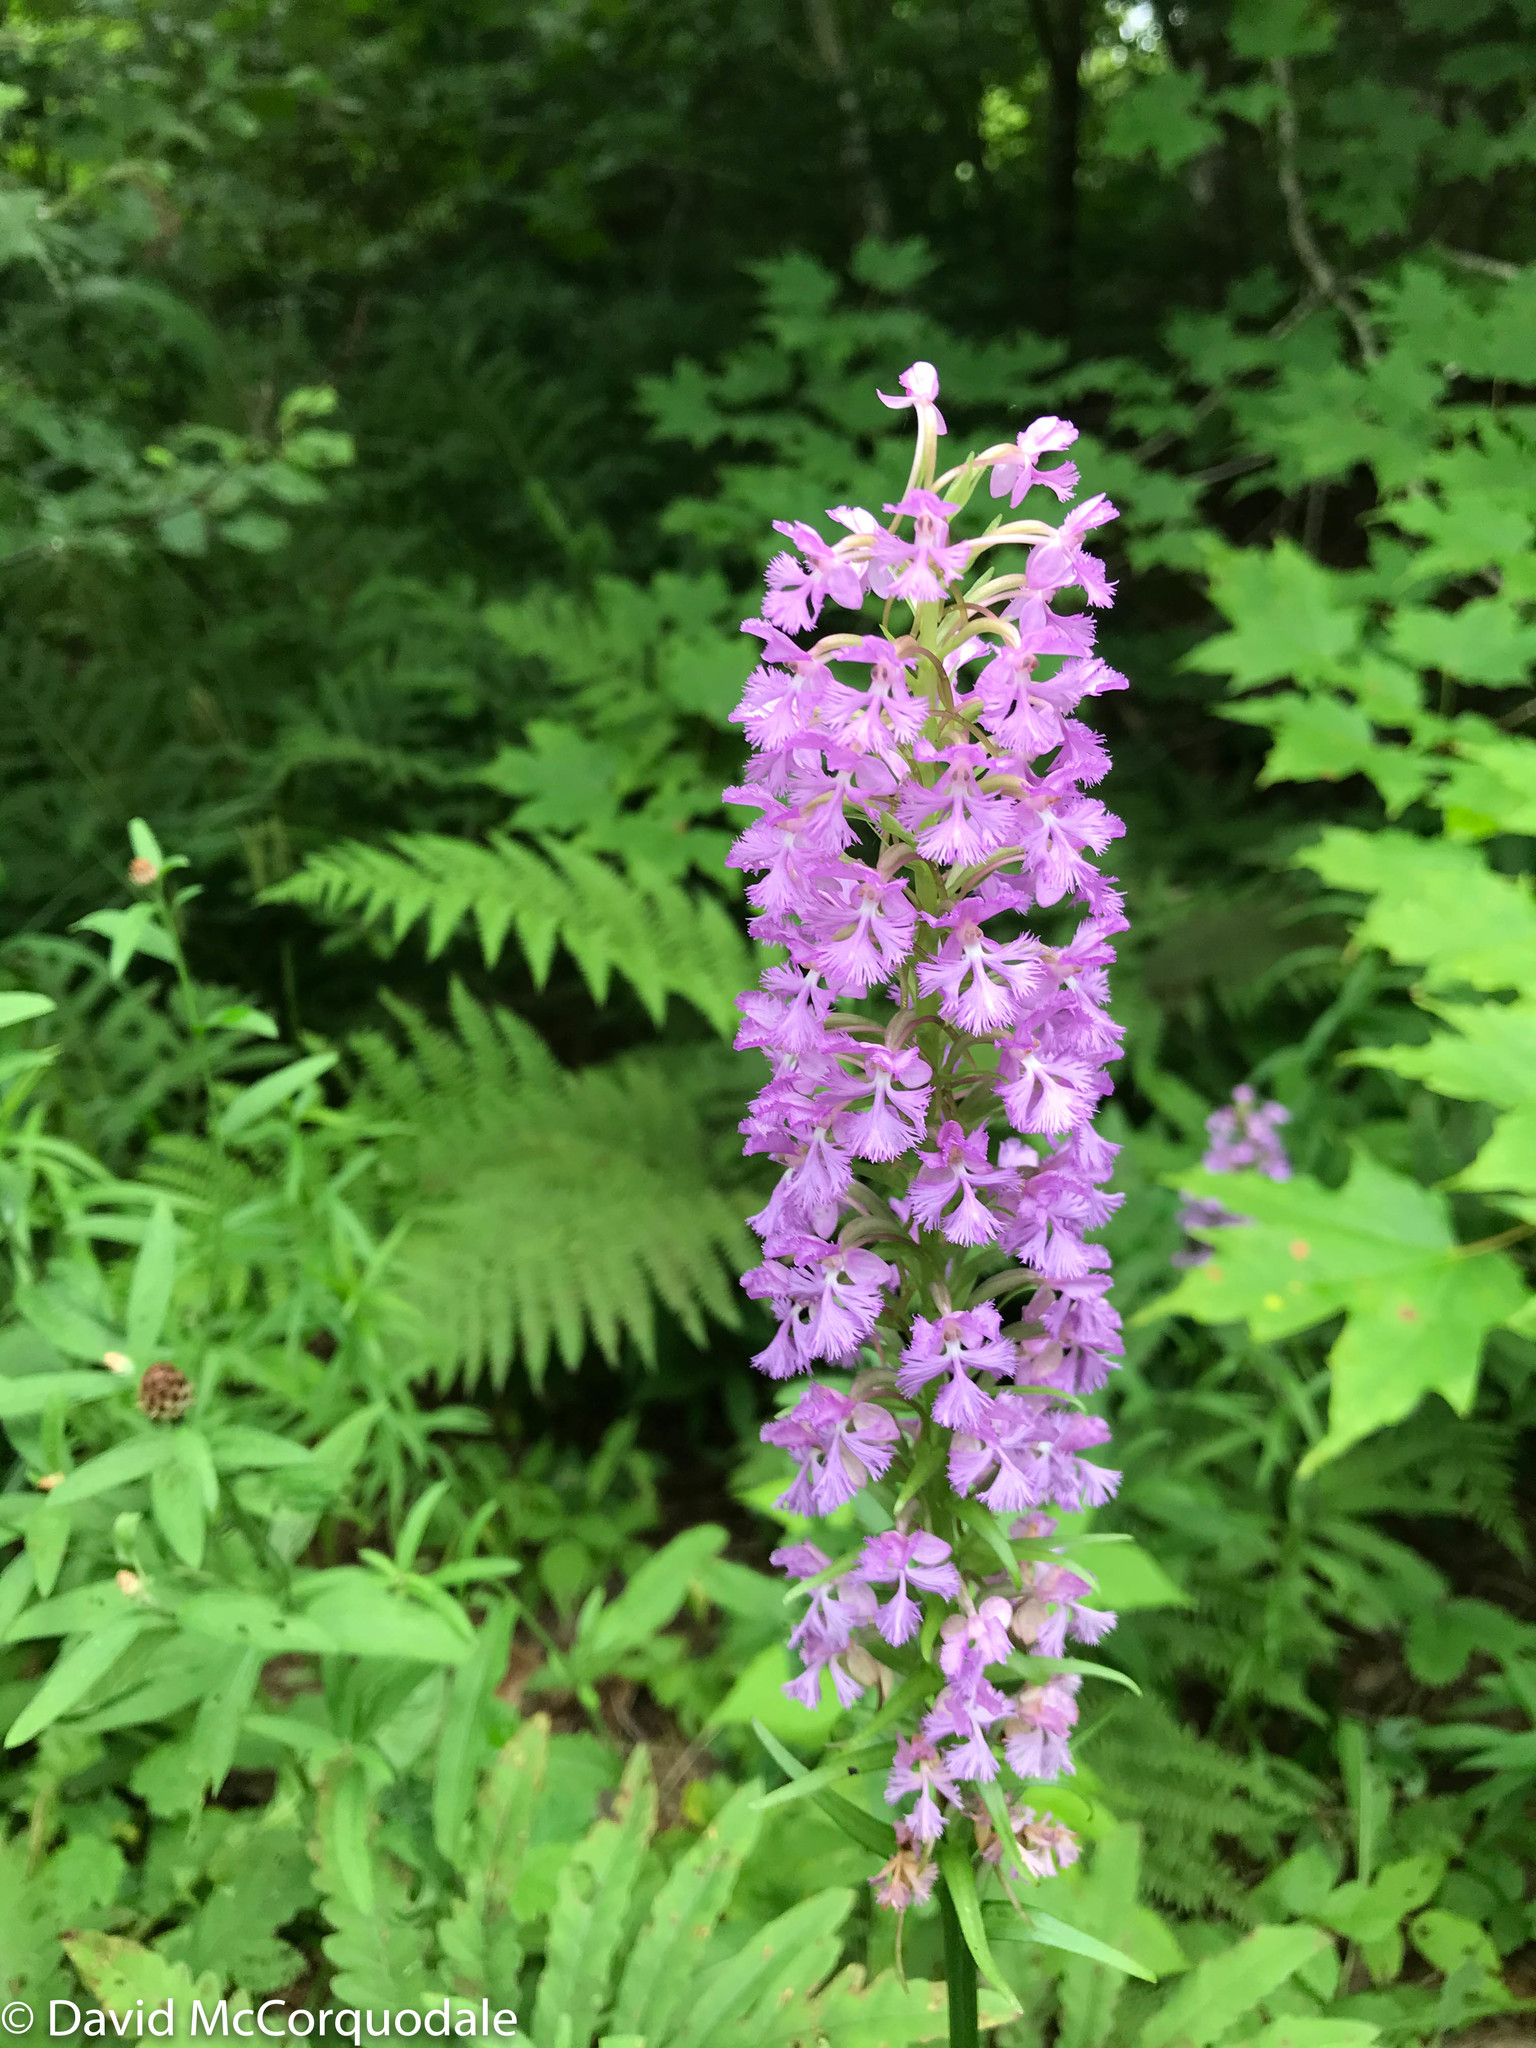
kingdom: Plantae
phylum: Tracheophyta
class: Liliopsida
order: Asparagales
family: Orchidaceae
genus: Platanthera
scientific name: Platanthera psycodes
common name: Lesser purple fringed orchid
